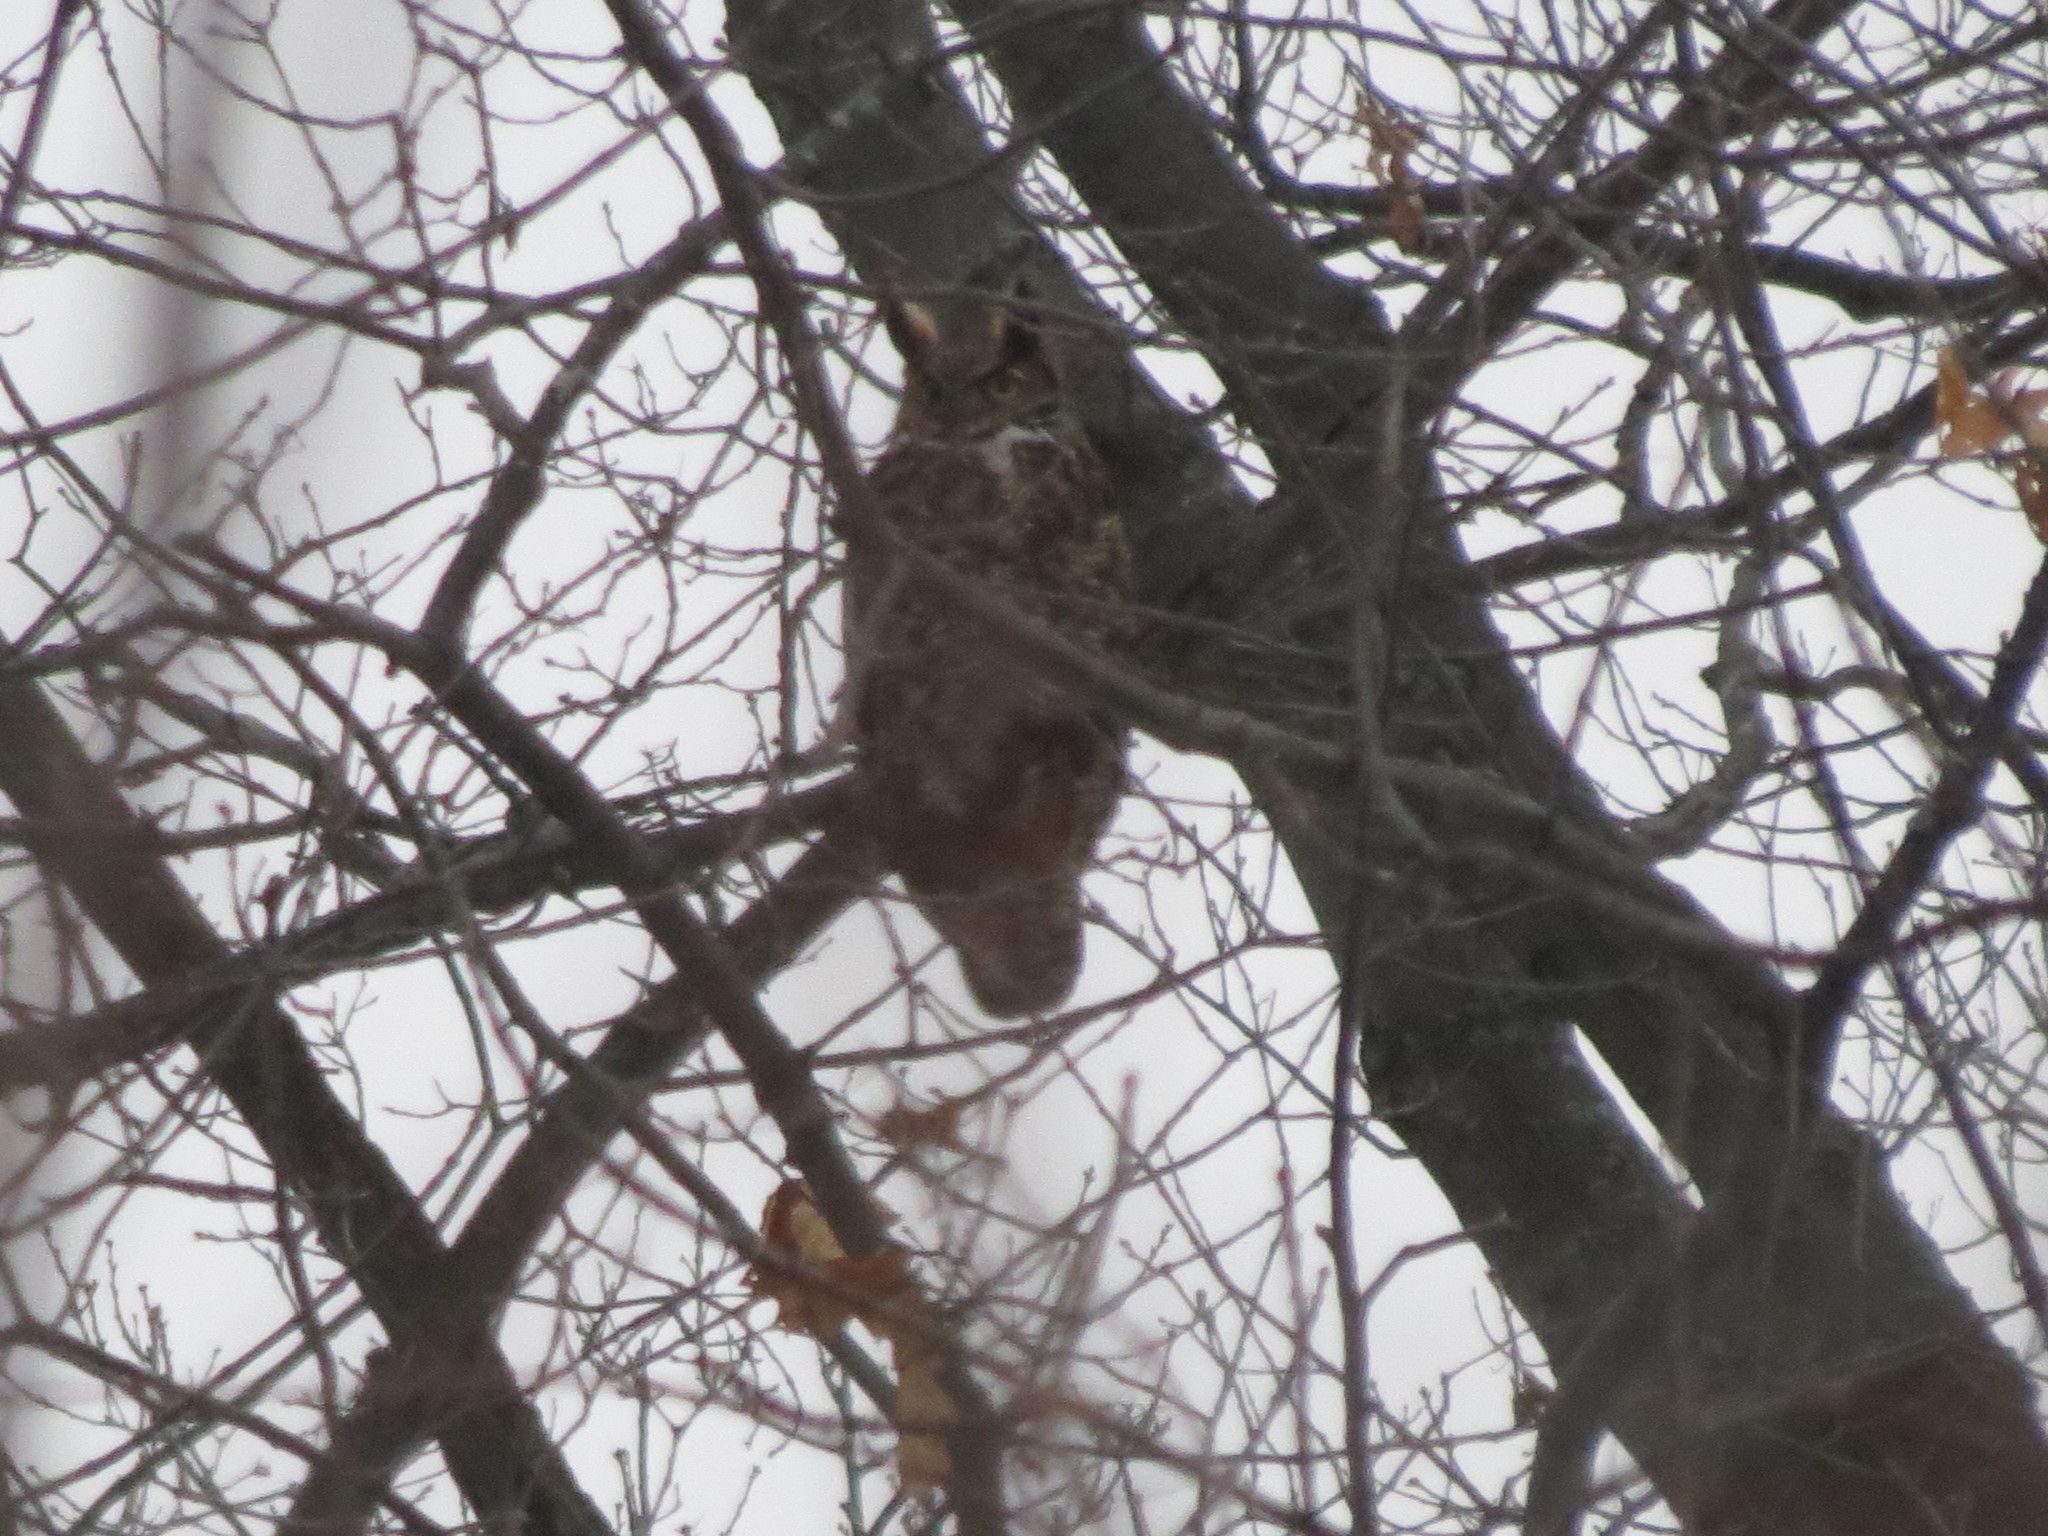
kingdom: Animalia
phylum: Chordata
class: Aves
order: Strigiformes
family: Strigidae
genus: Bubo
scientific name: Bubo virginianus
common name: Great horned owl
